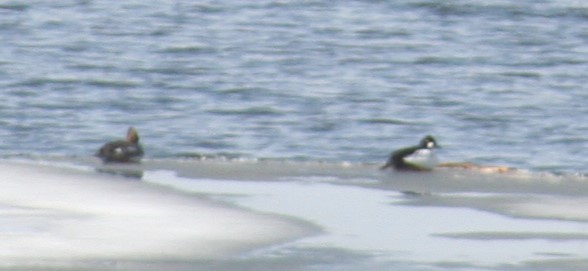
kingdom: Animalia
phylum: Chordata
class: Aves
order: Anseriformes
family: Anatidae
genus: Bucephala
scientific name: Bucephala clangula
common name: Common goldeneye
